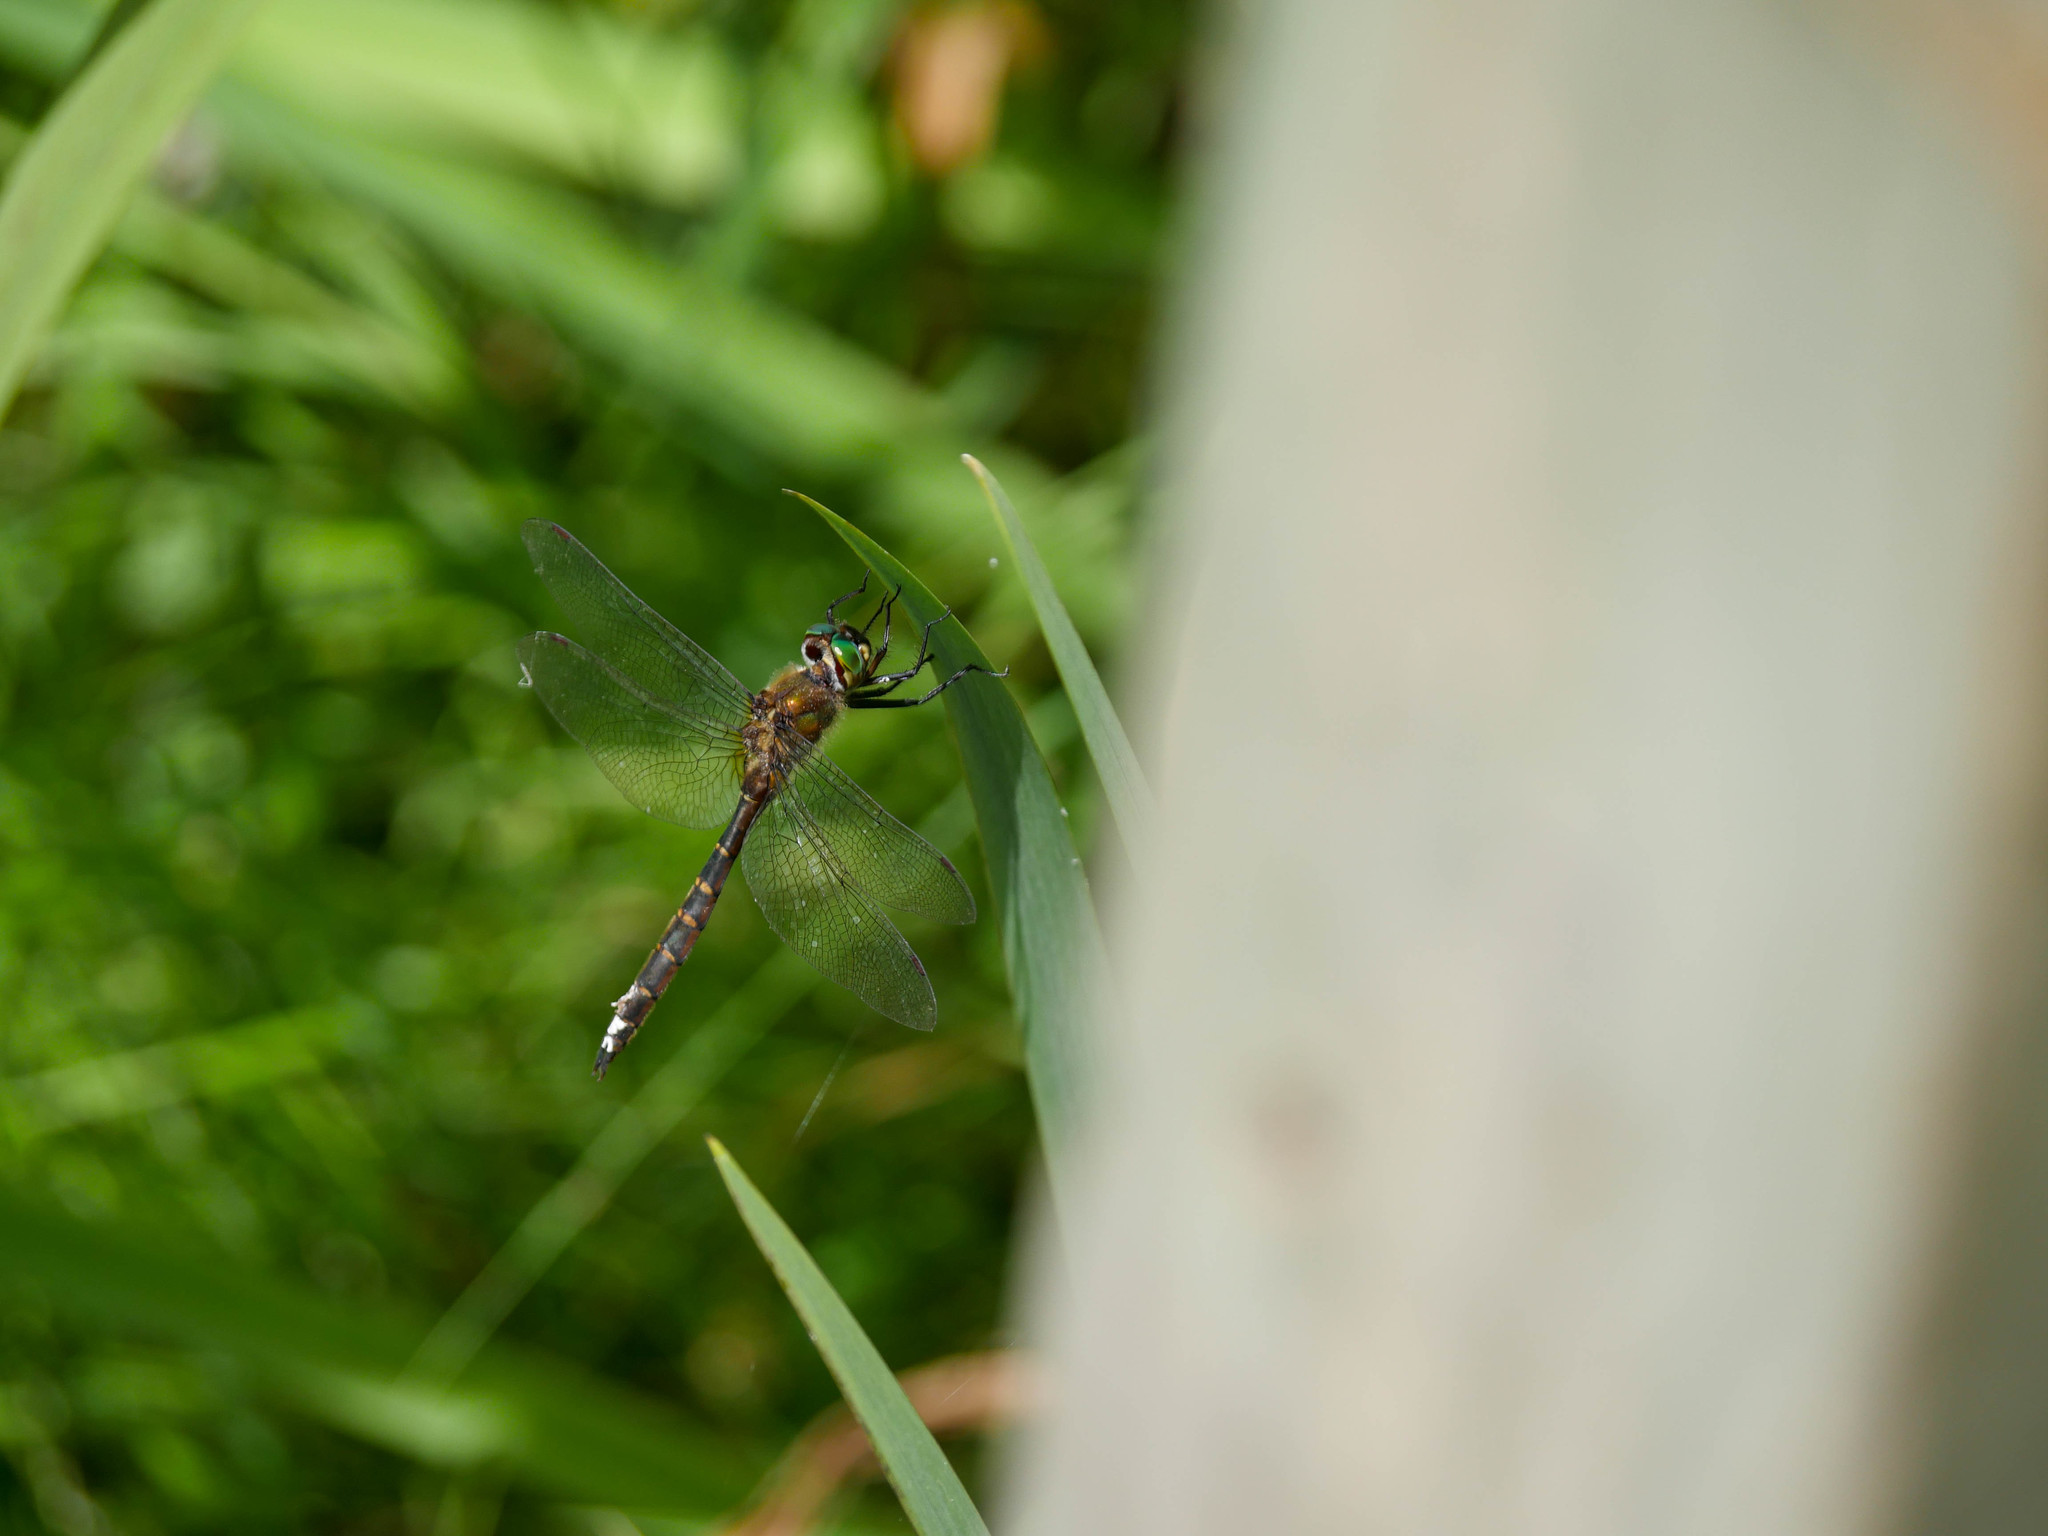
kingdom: Animalia
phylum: Arthropoda
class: Insecta
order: Odonata
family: Corduliidae
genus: Procordulia
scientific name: Procordulia smithii
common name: Ranger dragonfly
